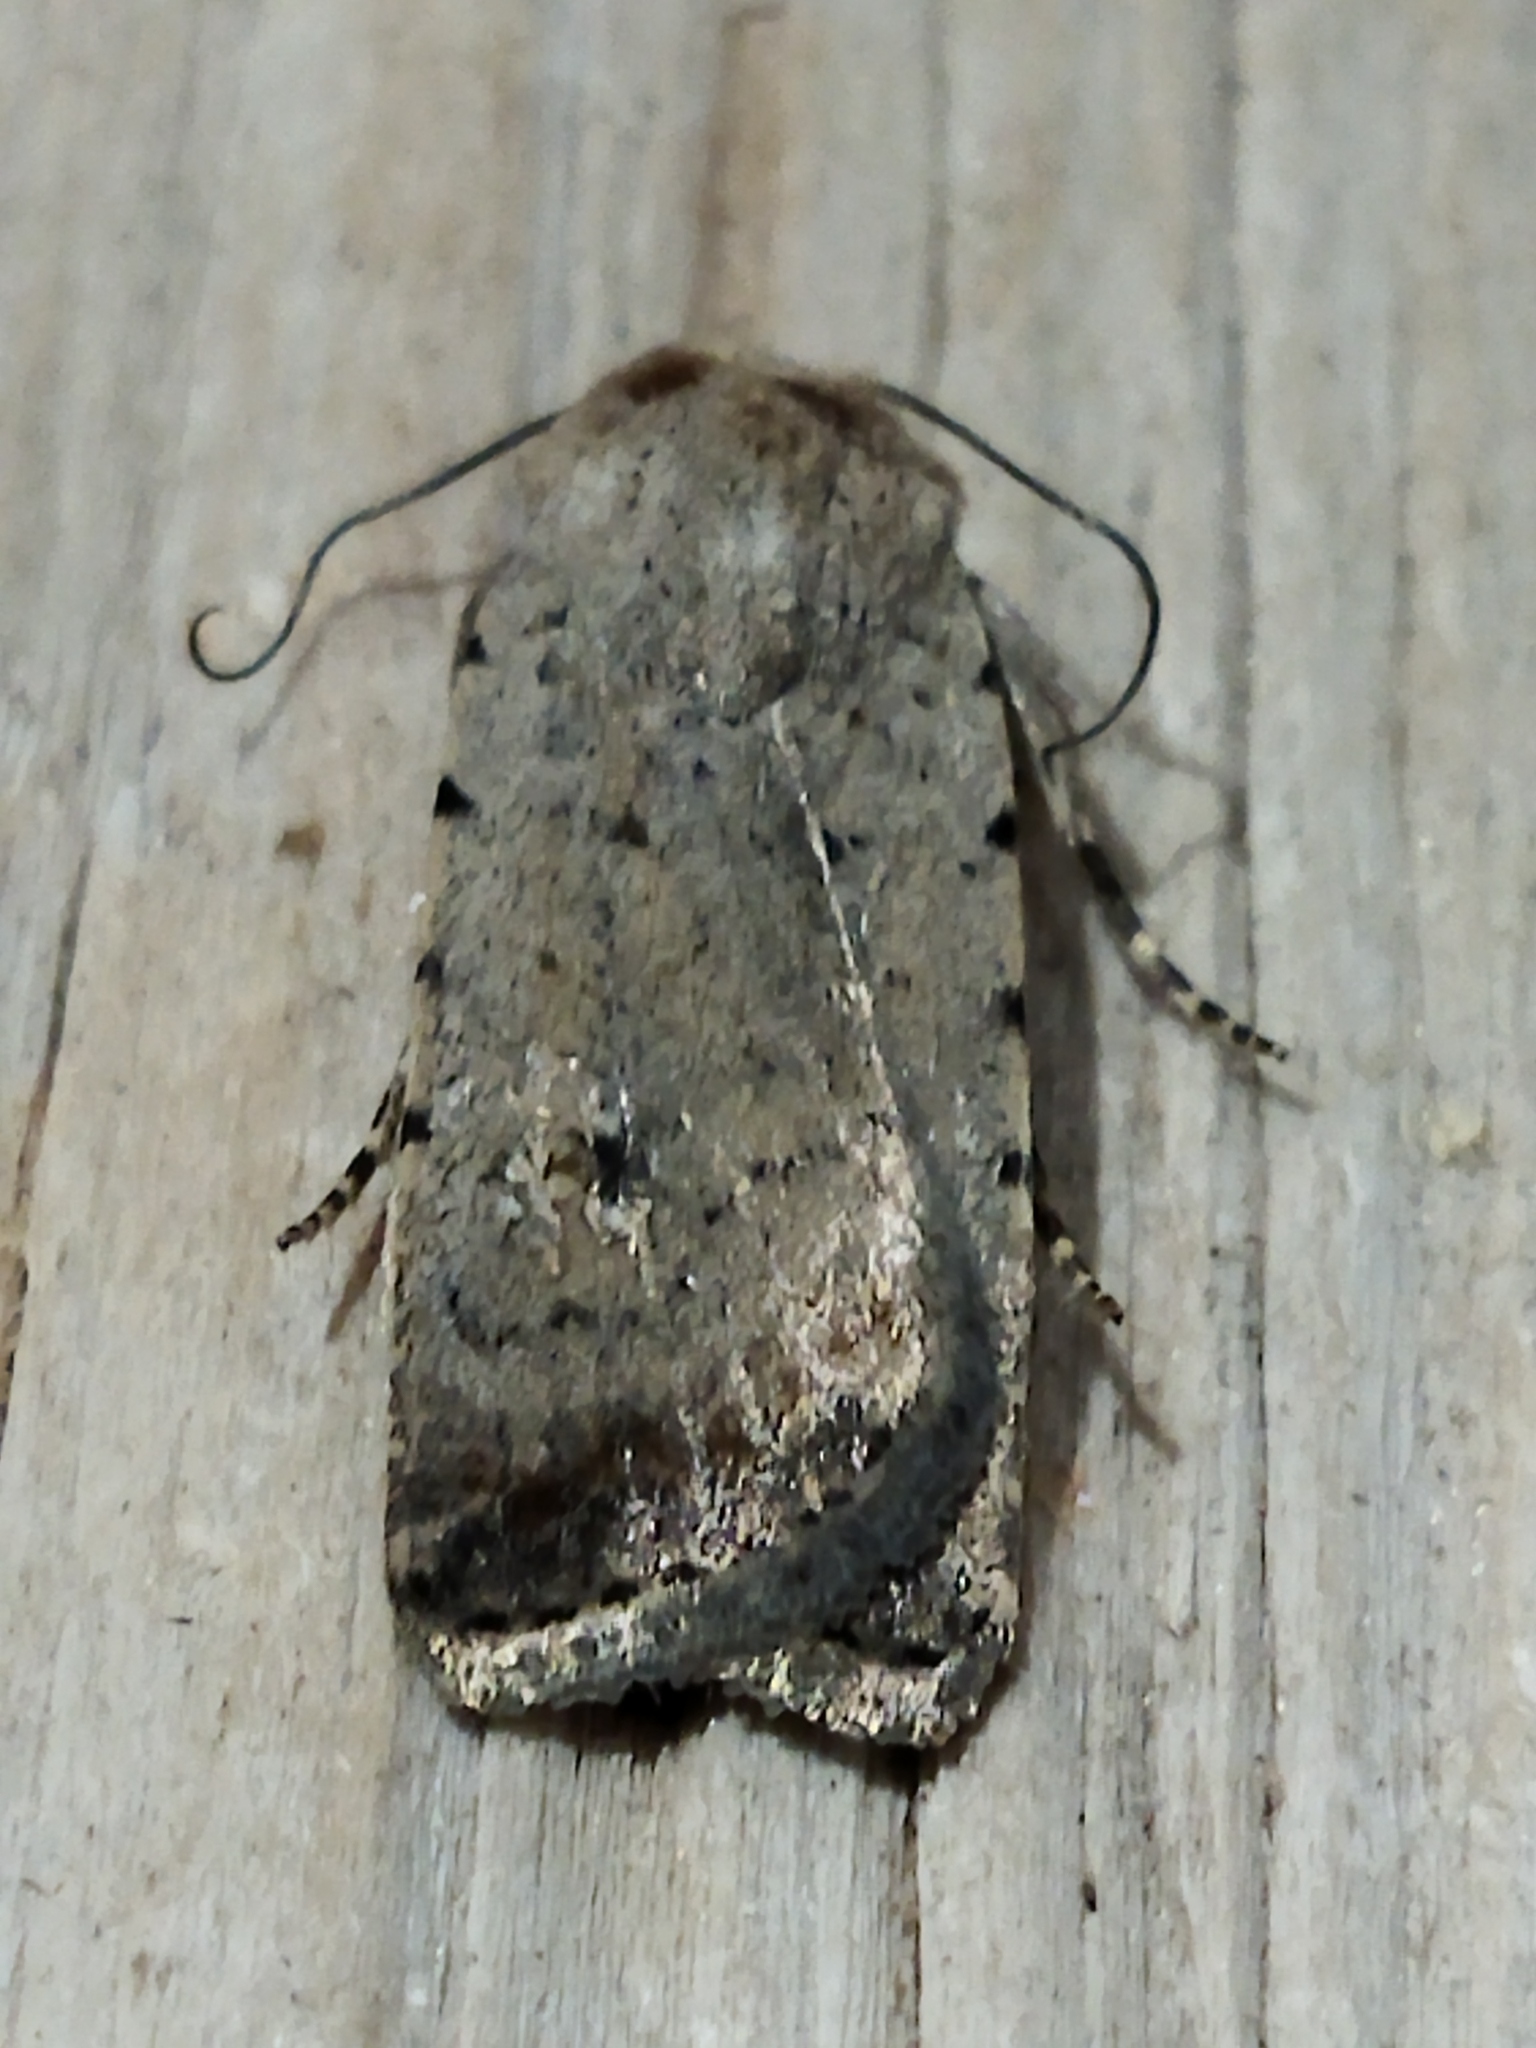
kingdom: Animalia
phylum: Arthropoda
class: Insecta
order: Lepidoptera
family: Noctuidae
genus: Caradrina
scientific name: Caradrina clavipalpis
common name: Pale mottled willow
